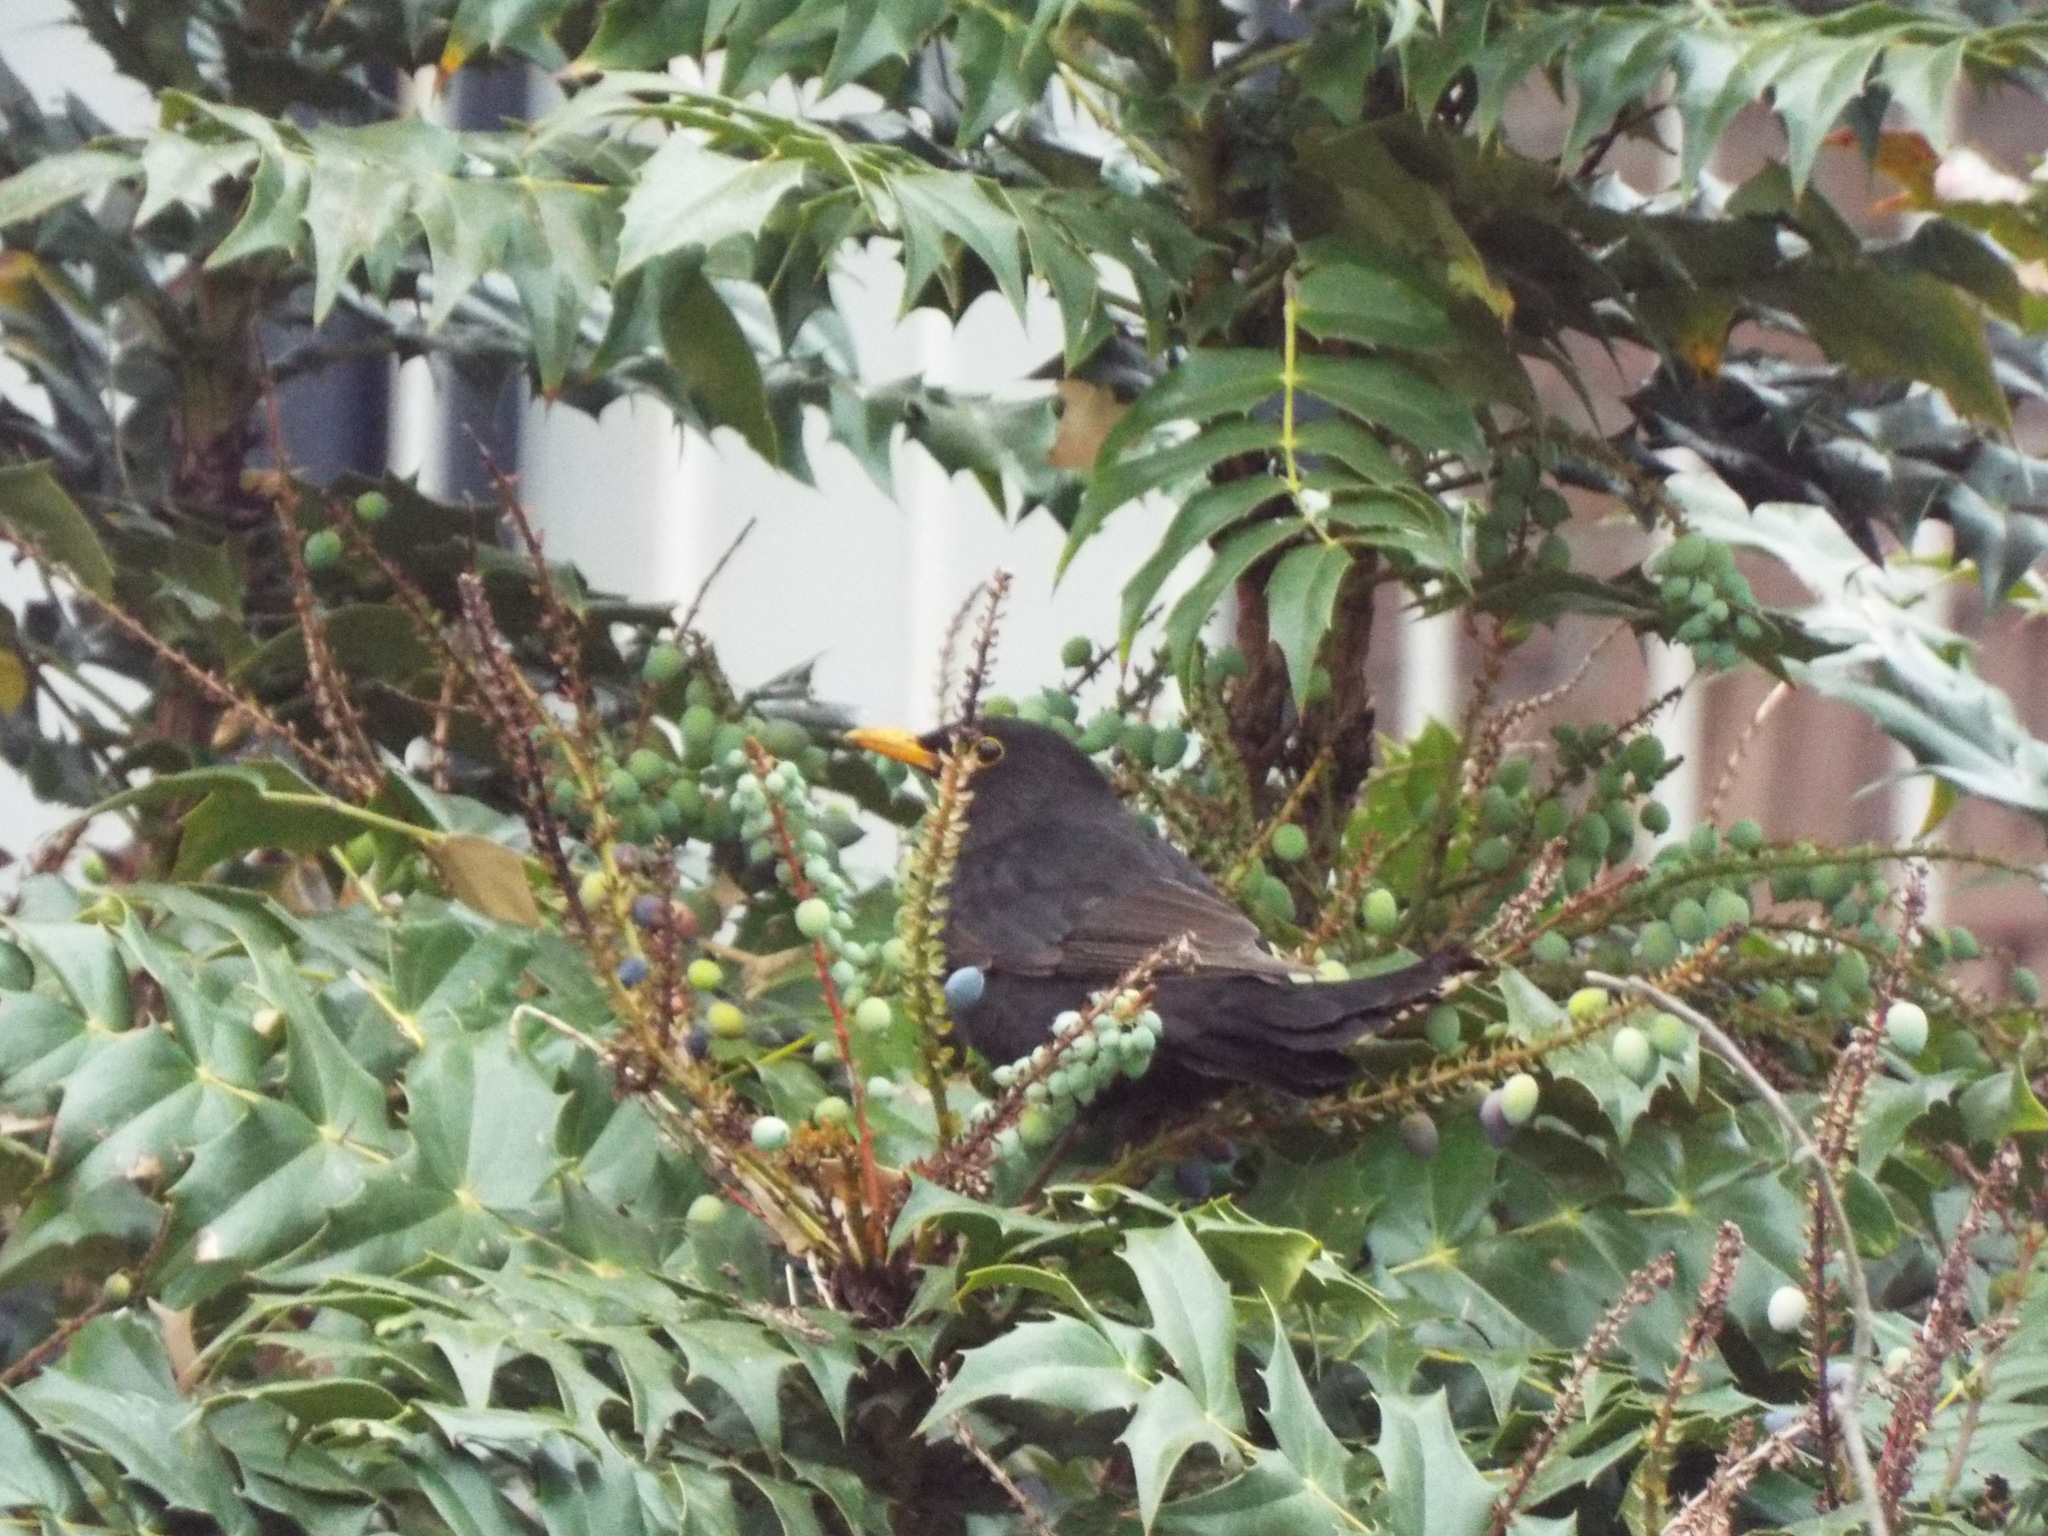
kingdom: Animalia
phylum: Chordata
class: Aves
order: Passeriformes
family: Turdidae
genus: Turdus
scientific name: Turdus merula
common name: Common blackbird
